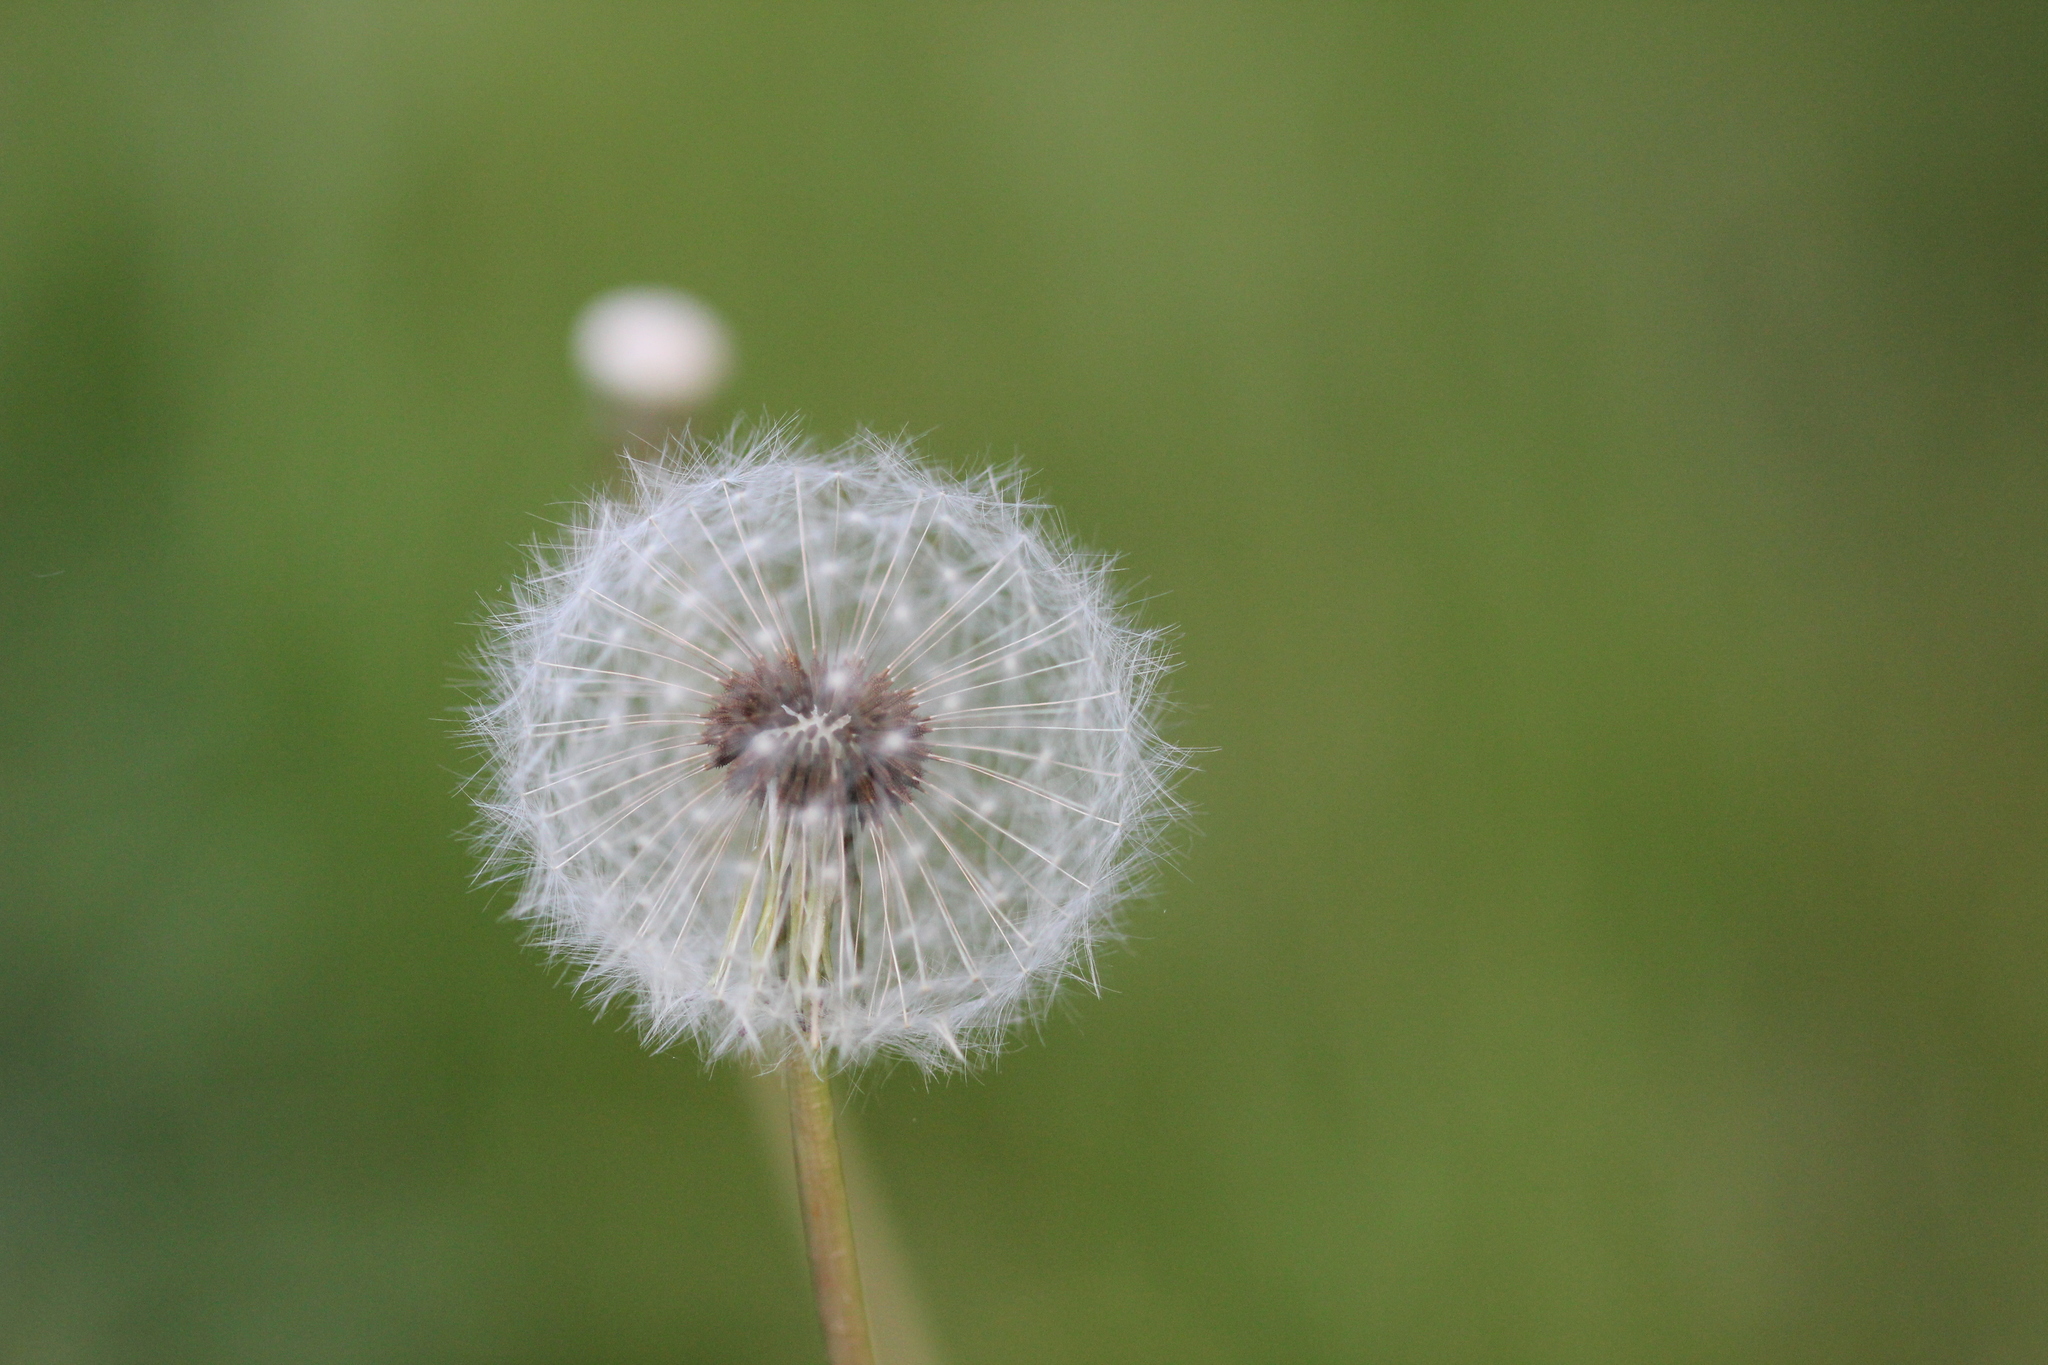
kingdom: Plantae
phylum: Tracheophyta
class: Magnoliopsida
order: Asterales
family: Asteraceae
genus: Taraxacum
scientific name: Taraxacum officinale
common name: Common dandelion
